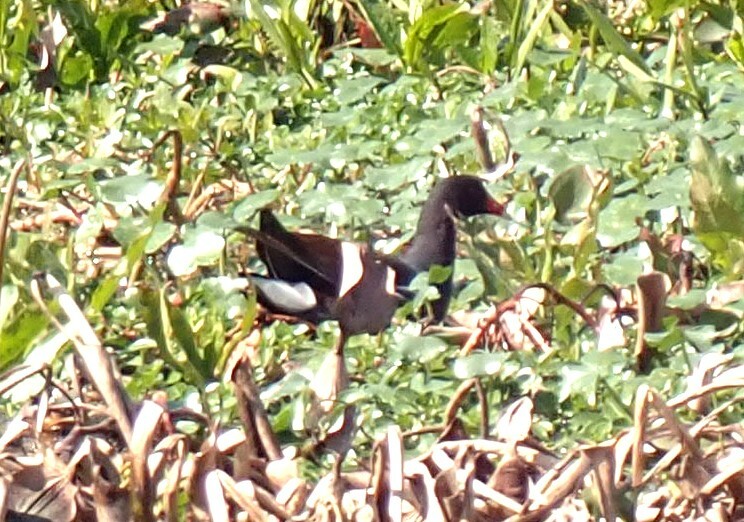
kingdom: Animalia
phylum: Chordata
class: Aves
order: Gruiformes
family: Rallidae
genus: Gallinula
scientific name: Gallinula chloropus
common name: Common moorhen
